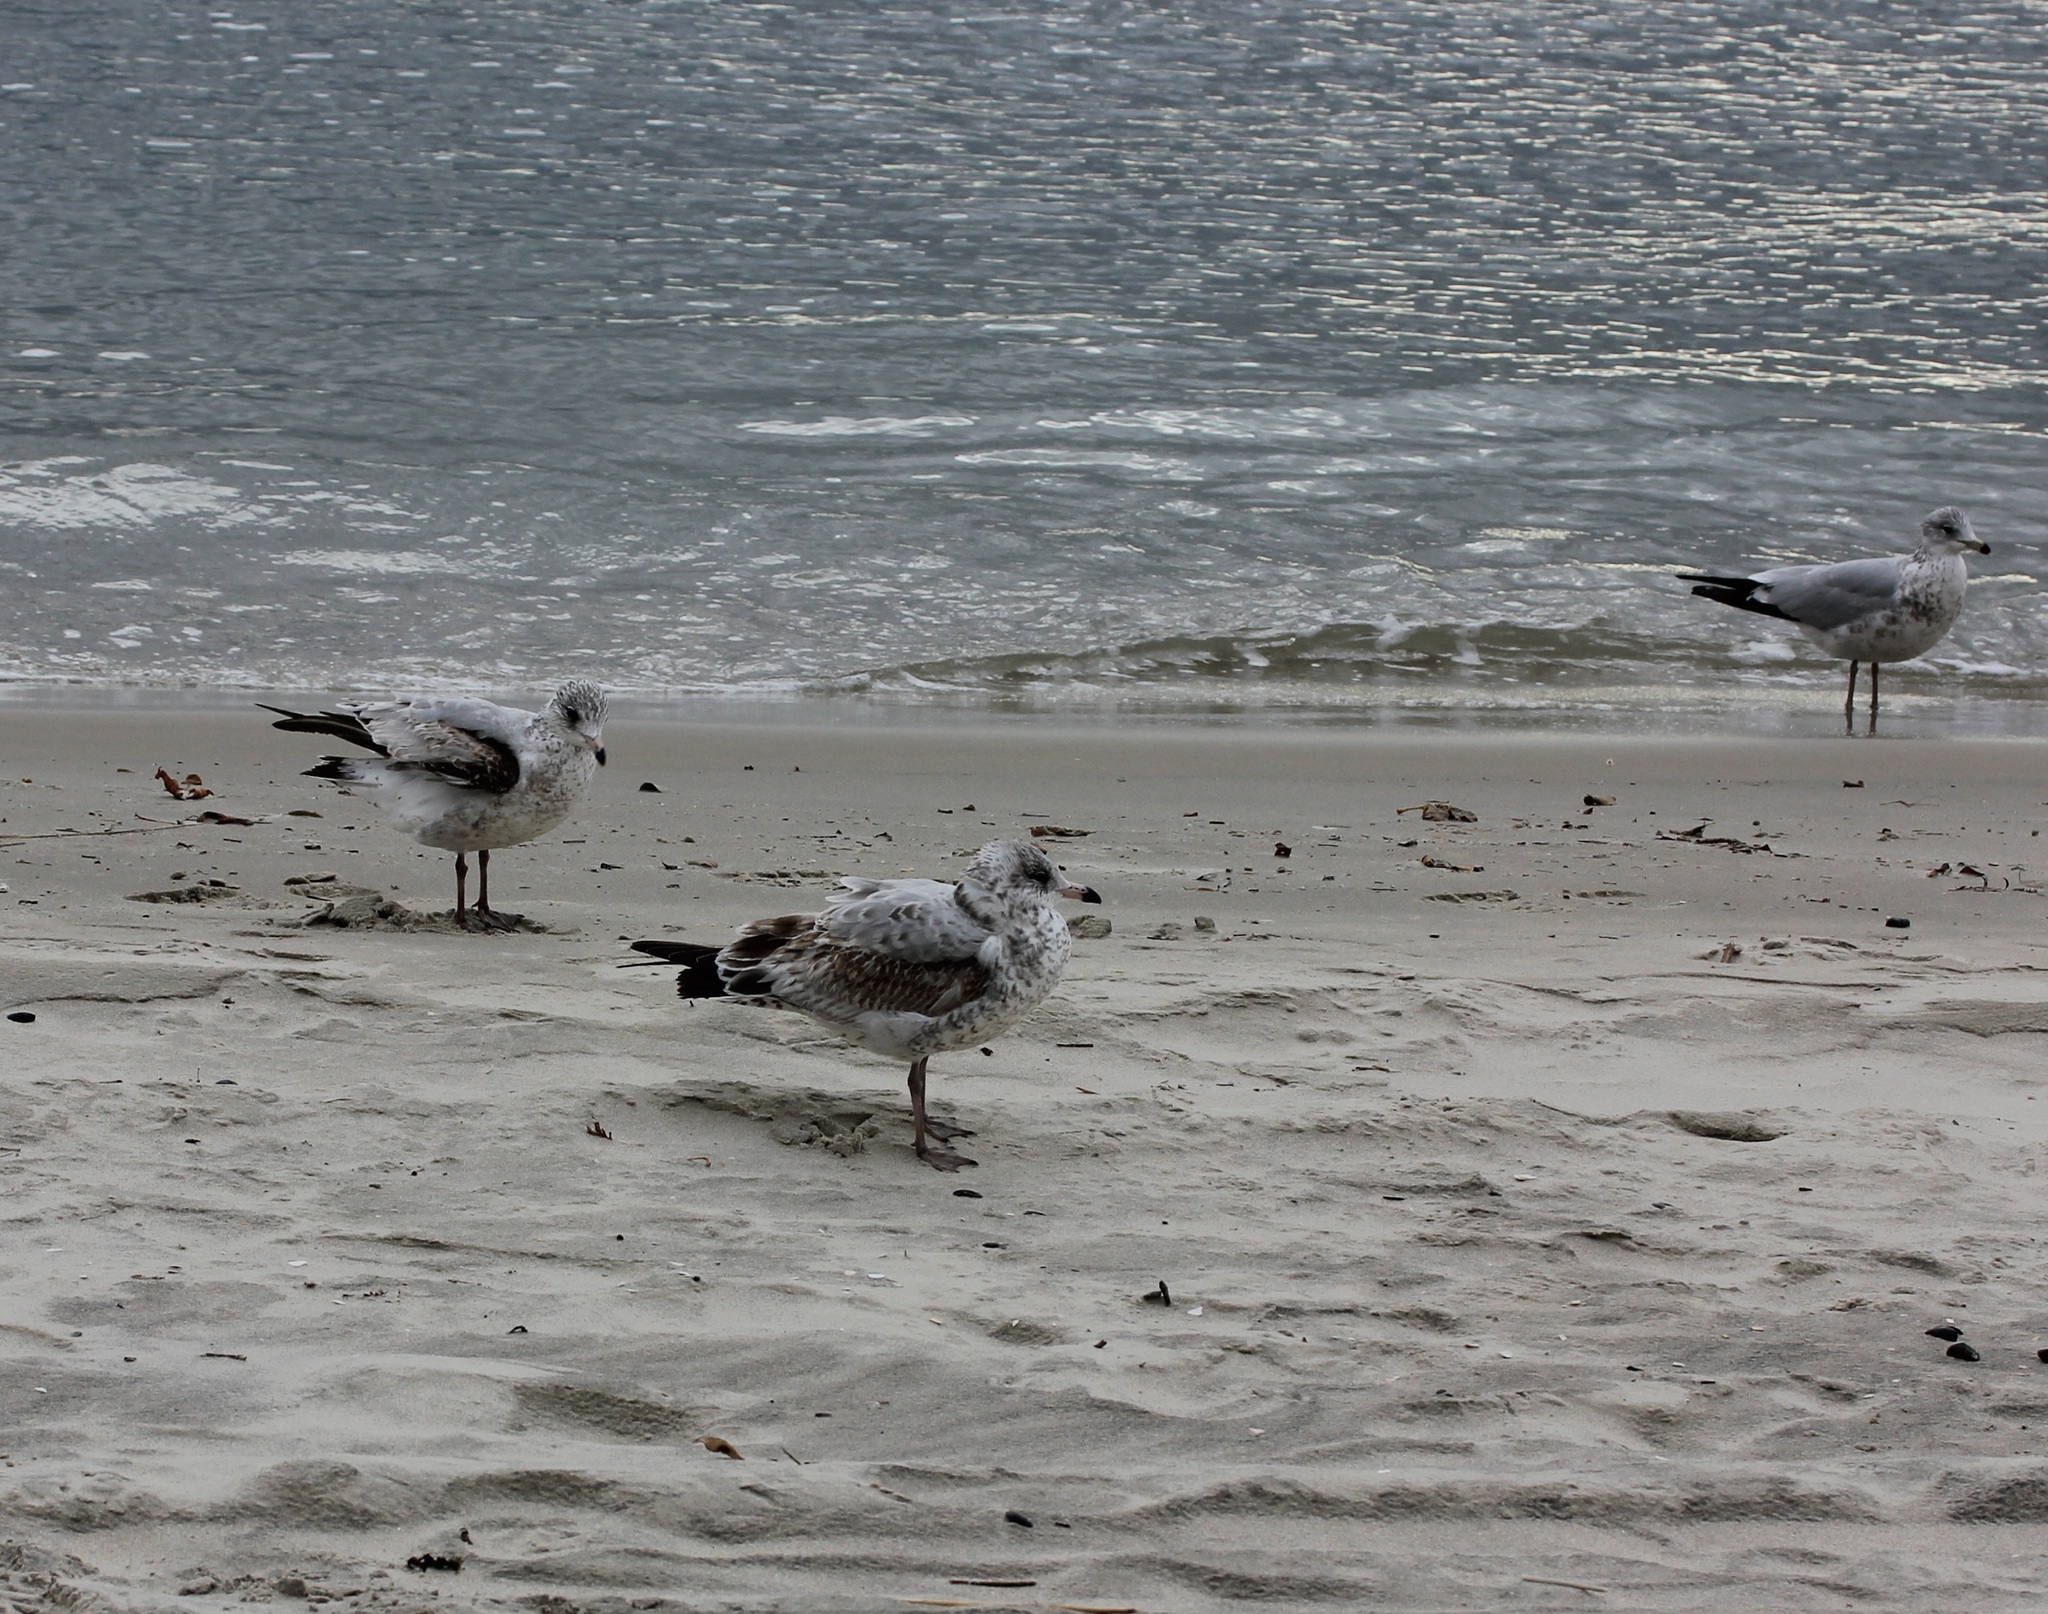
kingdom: Animalia
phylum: Chordata
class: Aves
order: Charadriiformes
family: Laridae
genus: Larus
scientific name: Larus delawarensis
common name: Ring-billed gull
